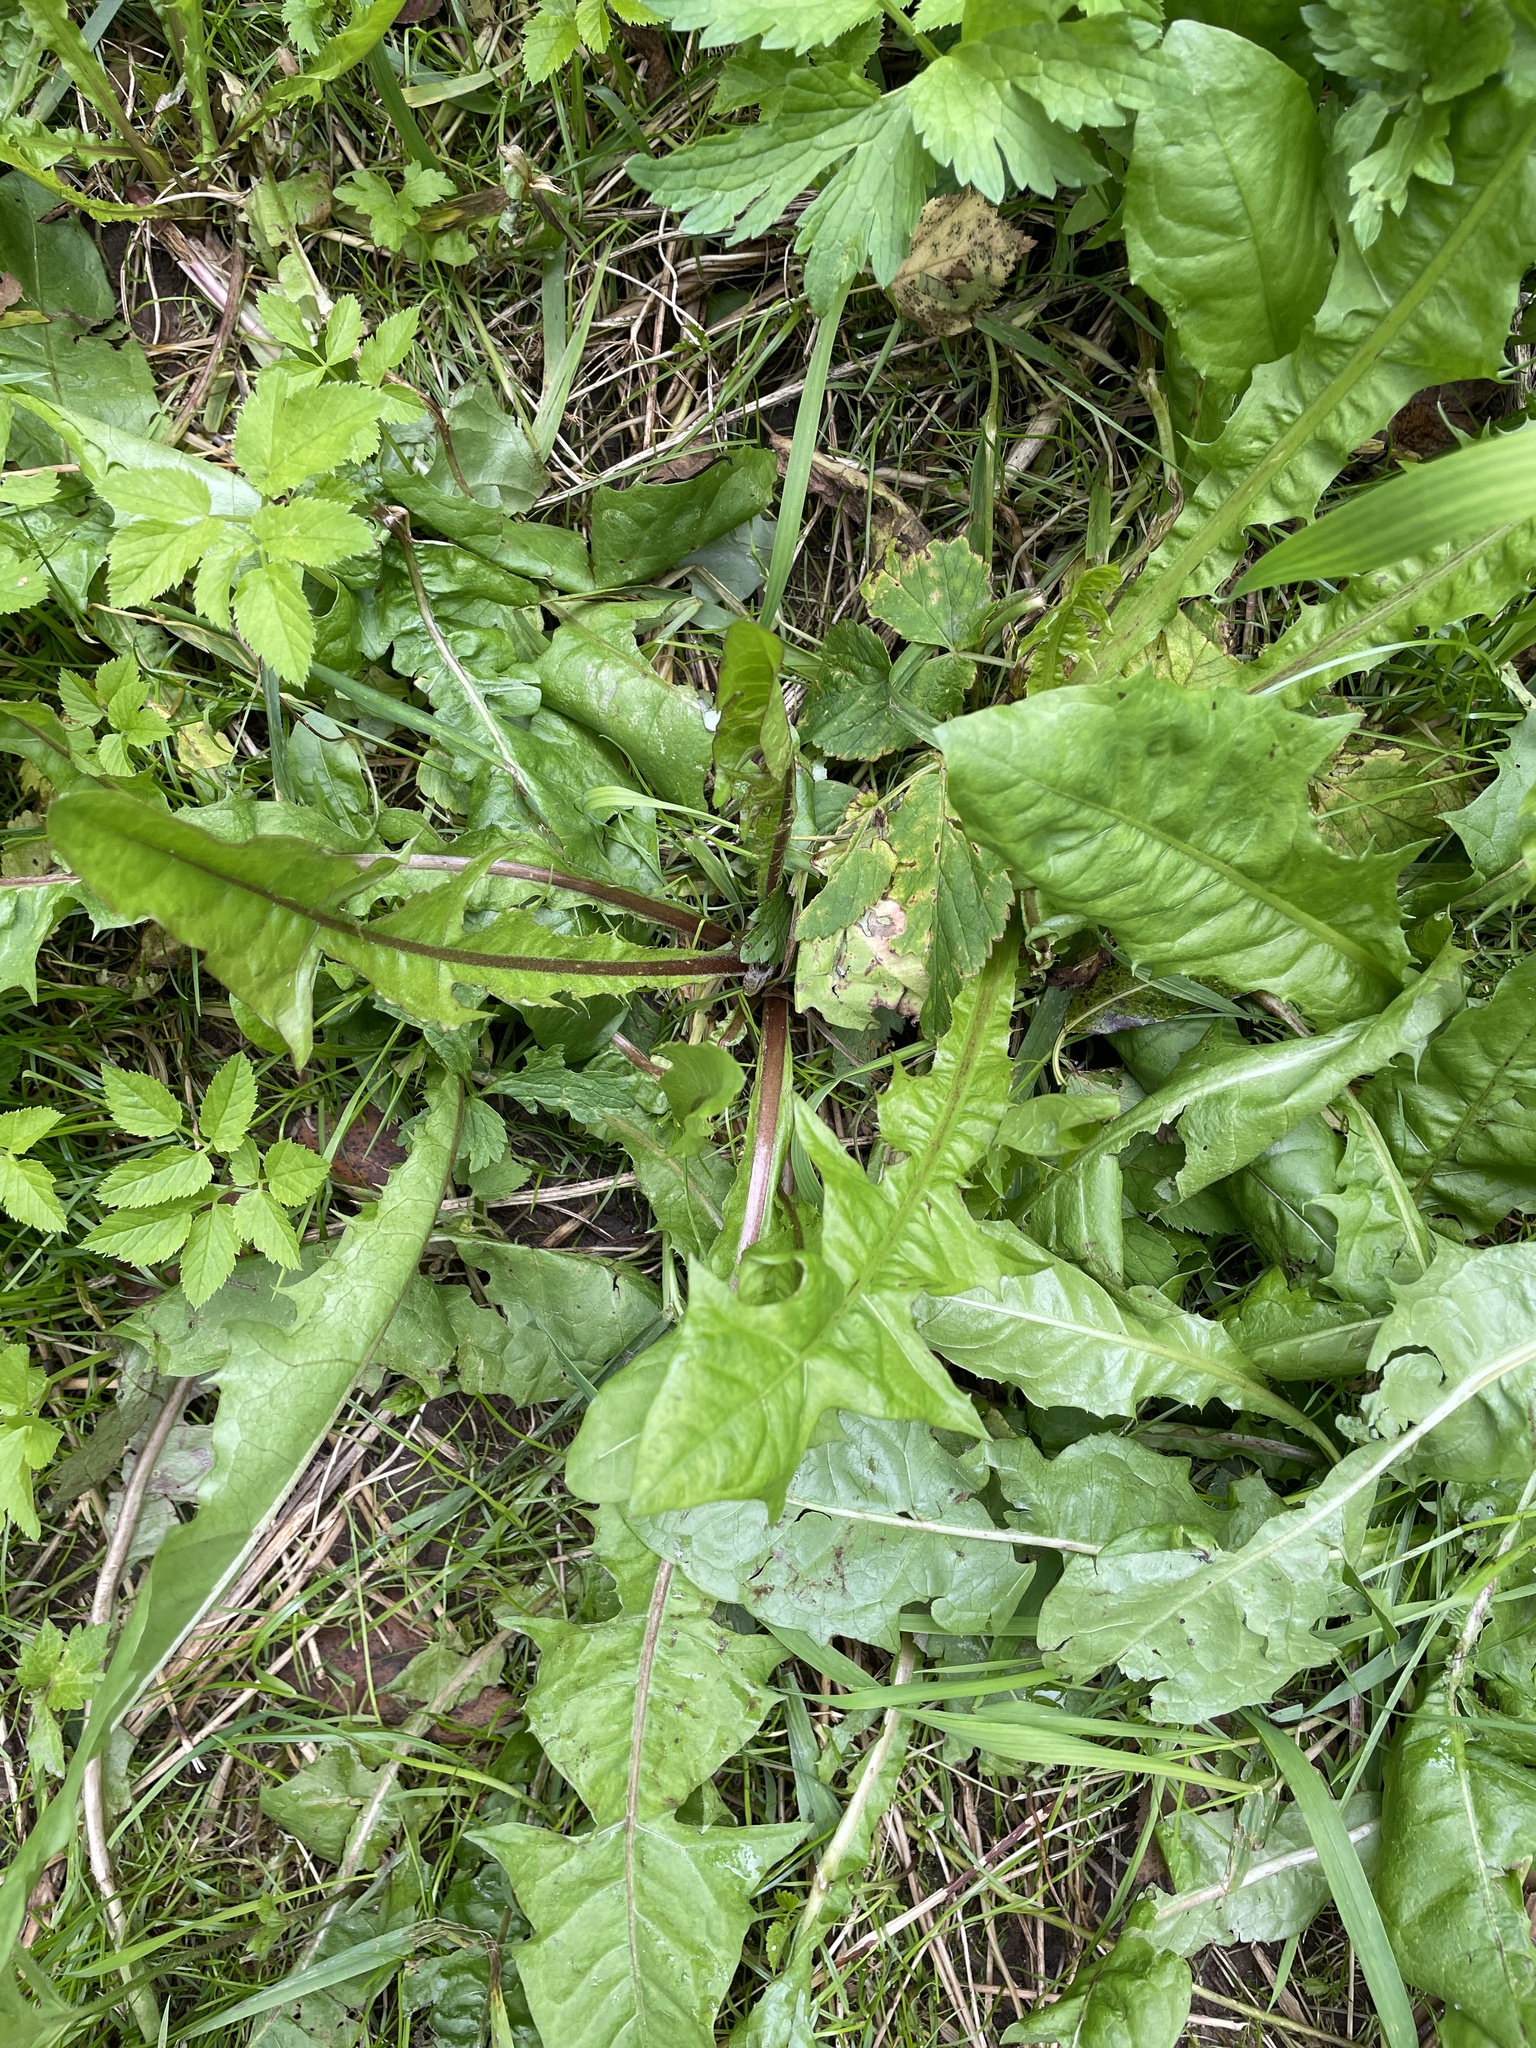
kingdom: Plantae
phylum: Tracheophyta
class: Magnoliopsida
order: Asterales
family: Asteraceae
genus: Taraxacum
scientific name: Taraxacum officinale
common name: Common dandelion
